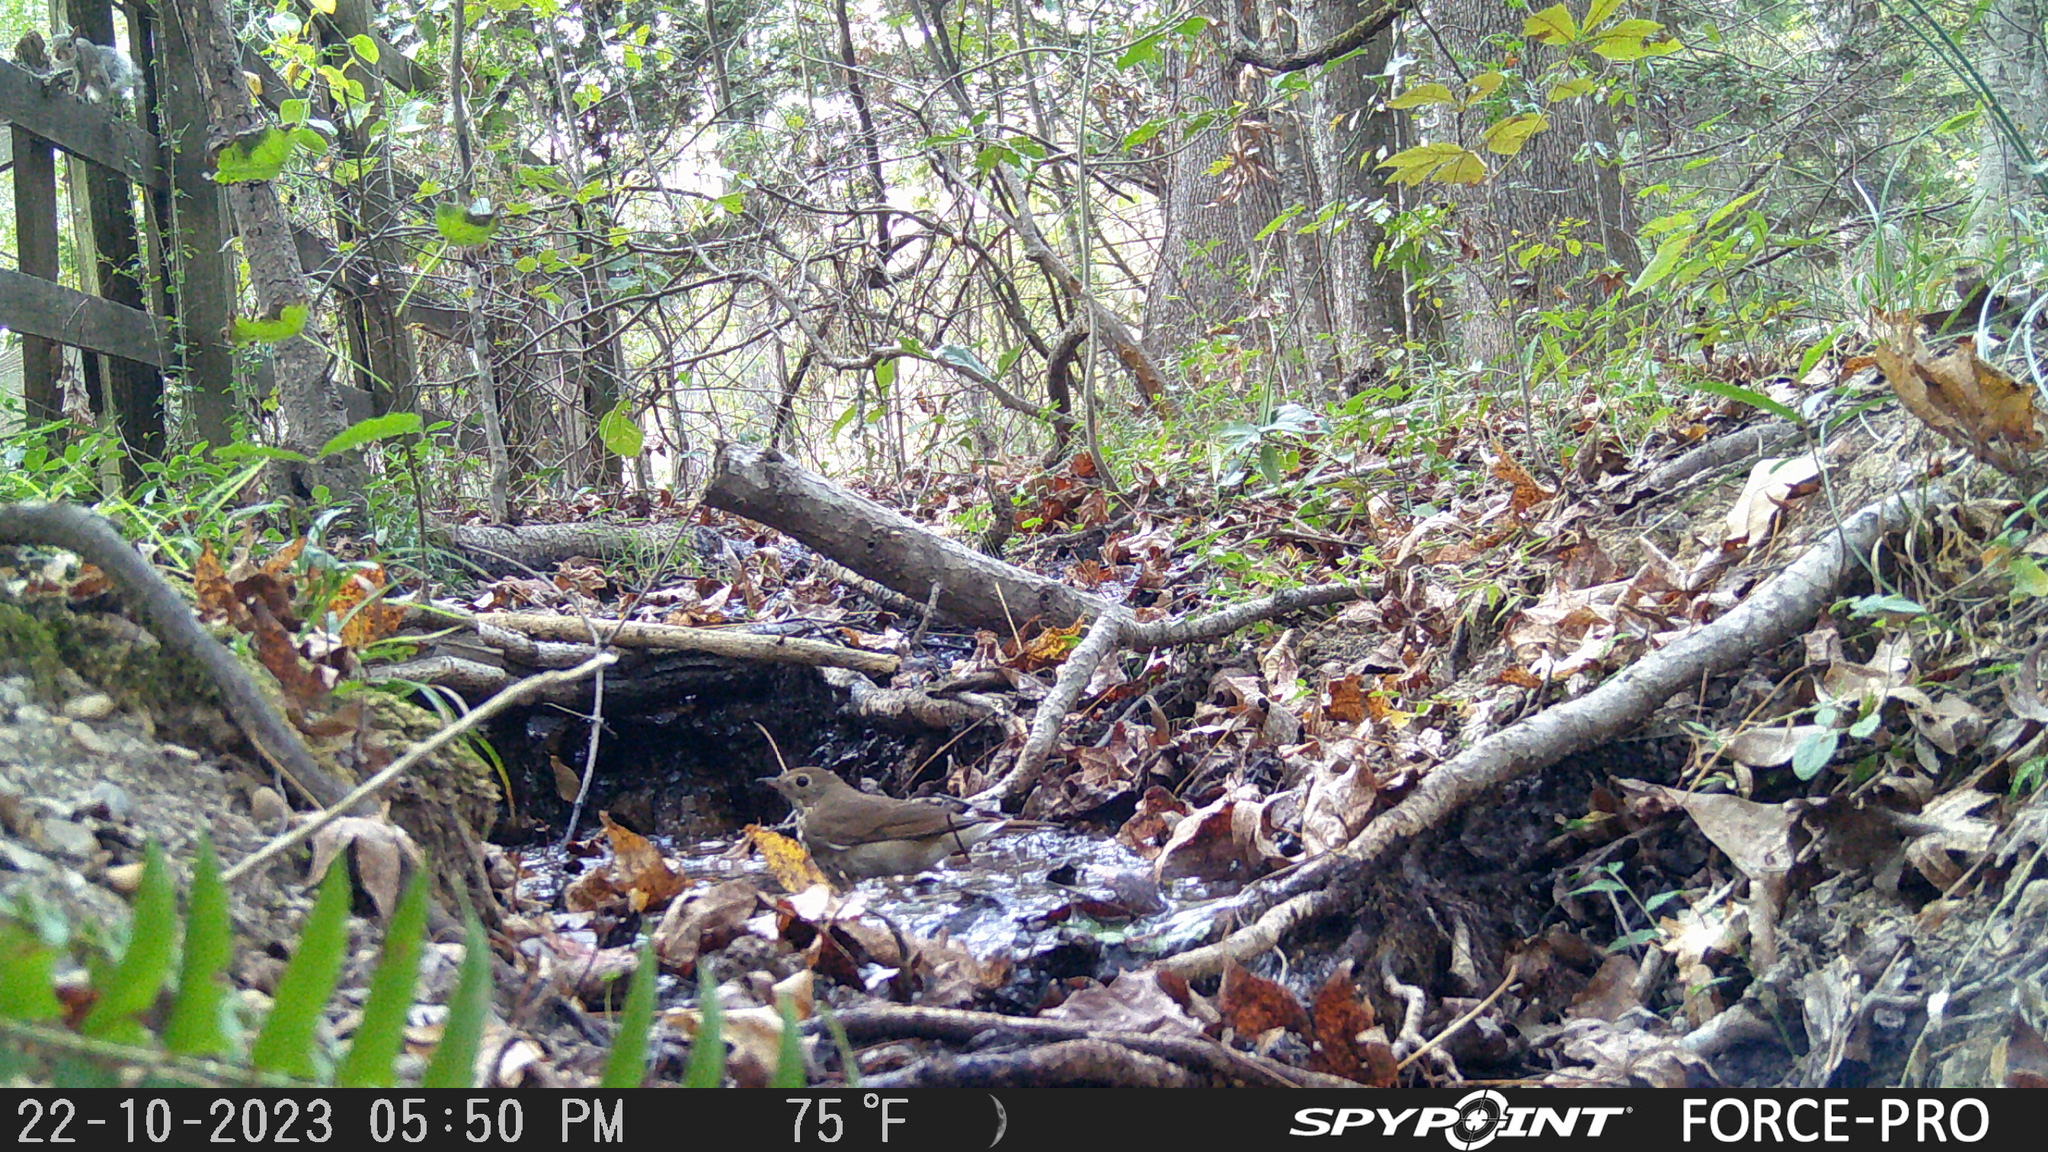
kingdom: Animalia
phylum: Chordata
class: Aves
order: Passeriformes
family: Turdidae
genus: Catharus
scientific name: Catharus guttatus
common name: Hermit thrush
